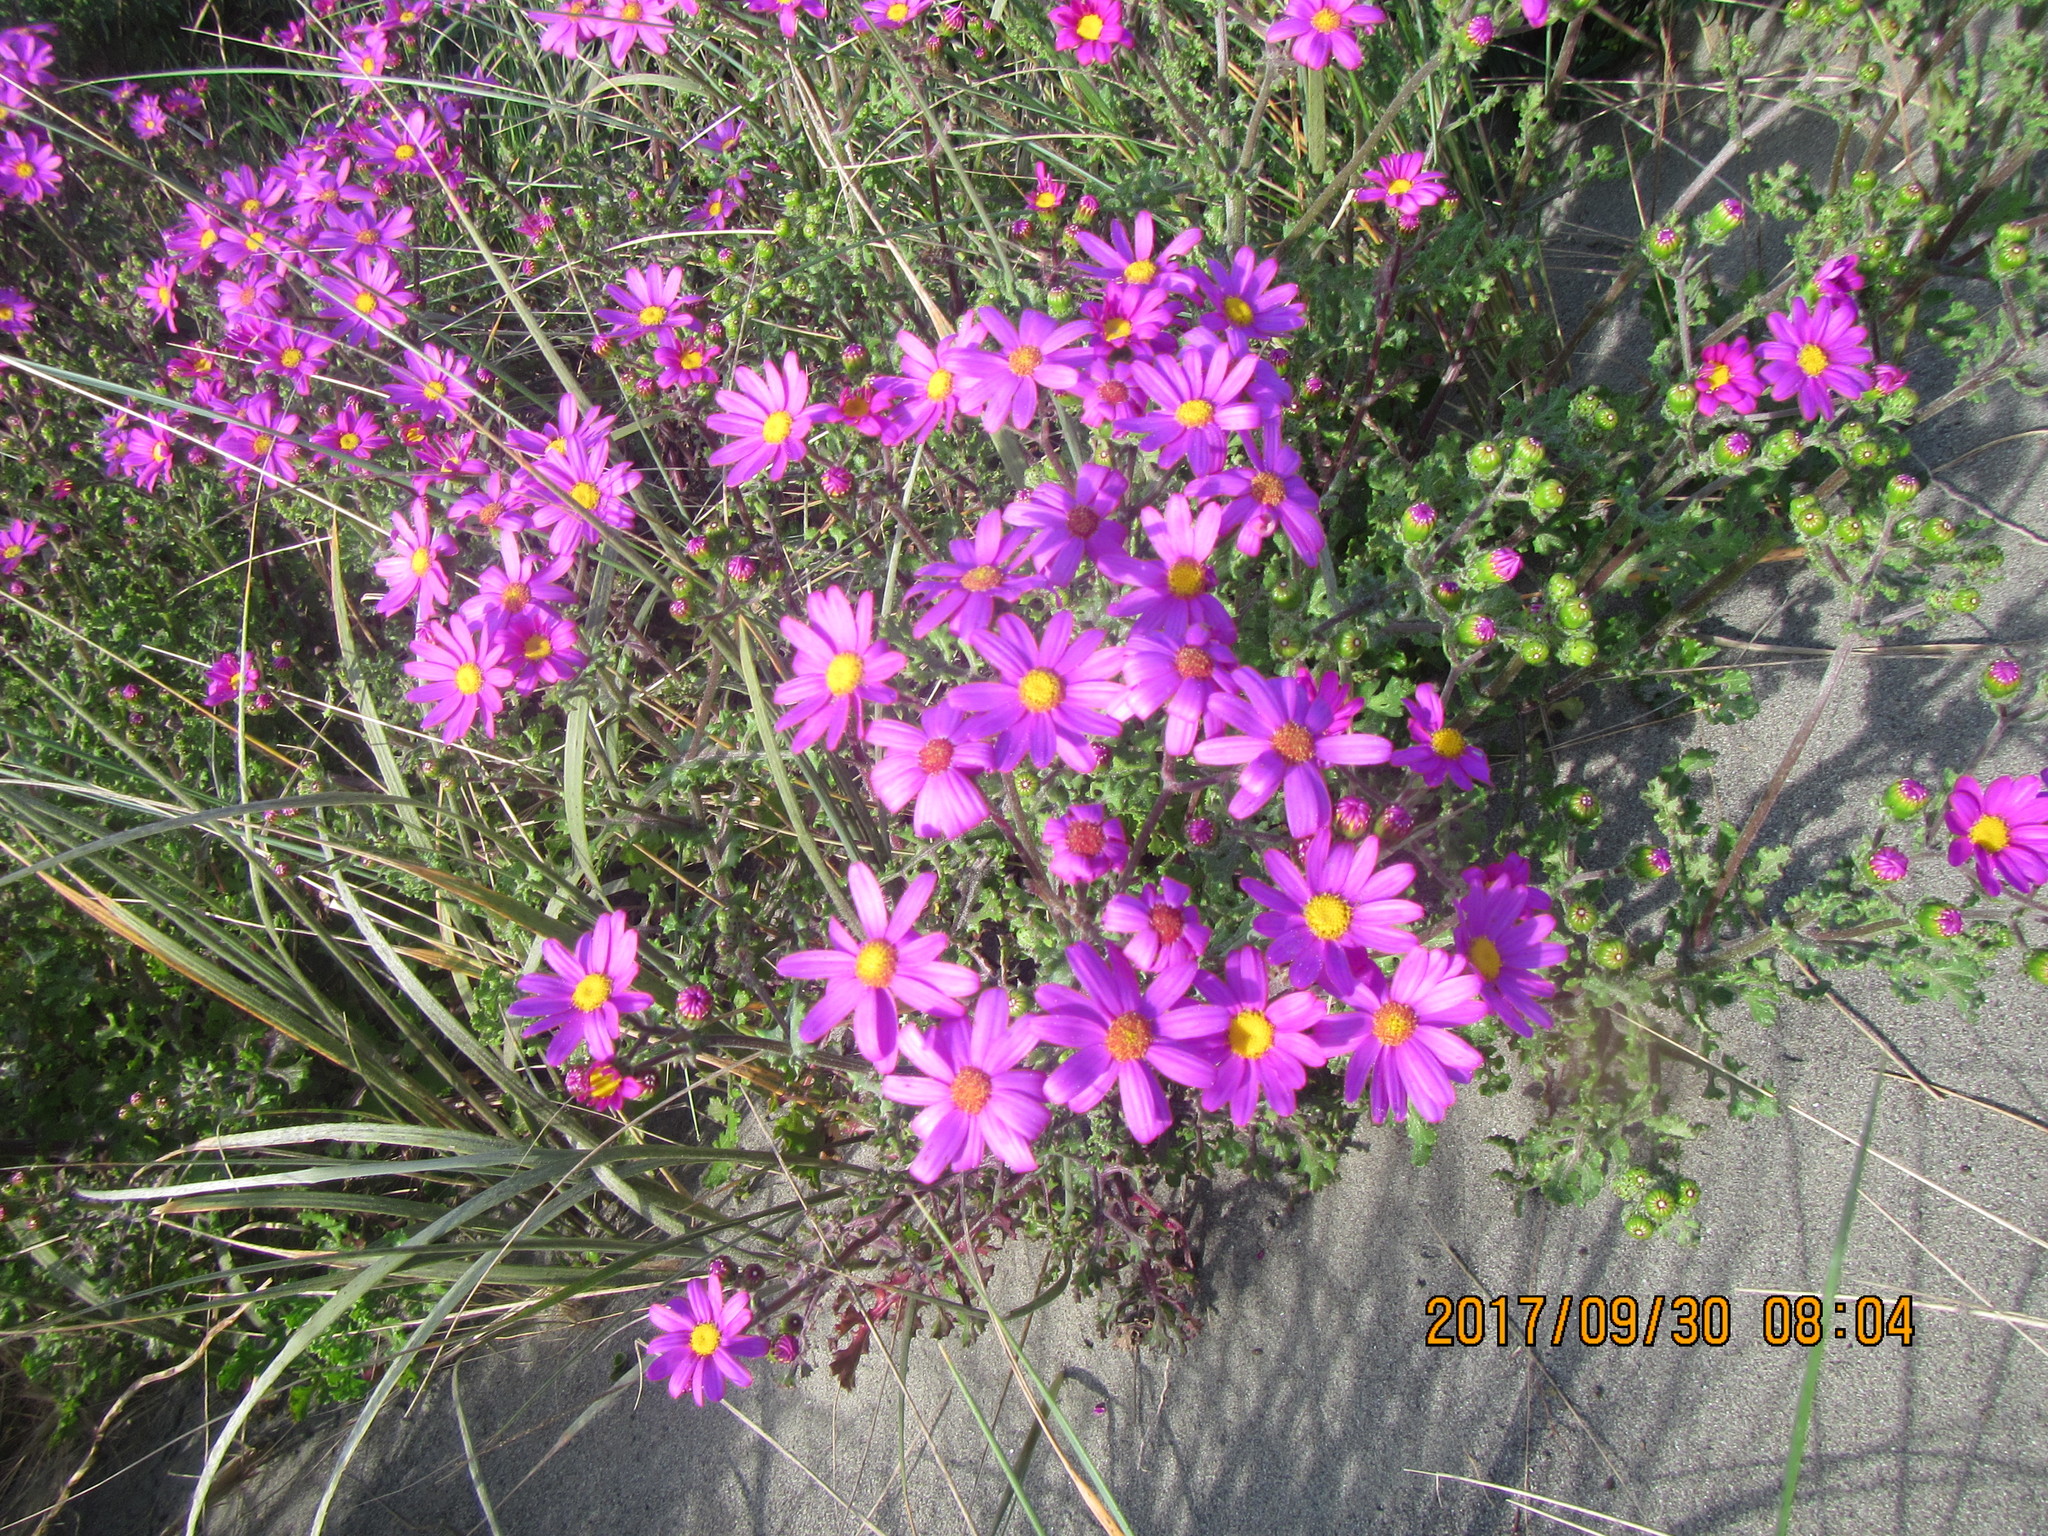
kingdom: Plantae
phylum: Tracheophyta
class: Magnoliopsida
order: Asterales
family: Asteraceae
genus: Senecio
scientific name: Senecio elegans
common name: Purple groundsel
